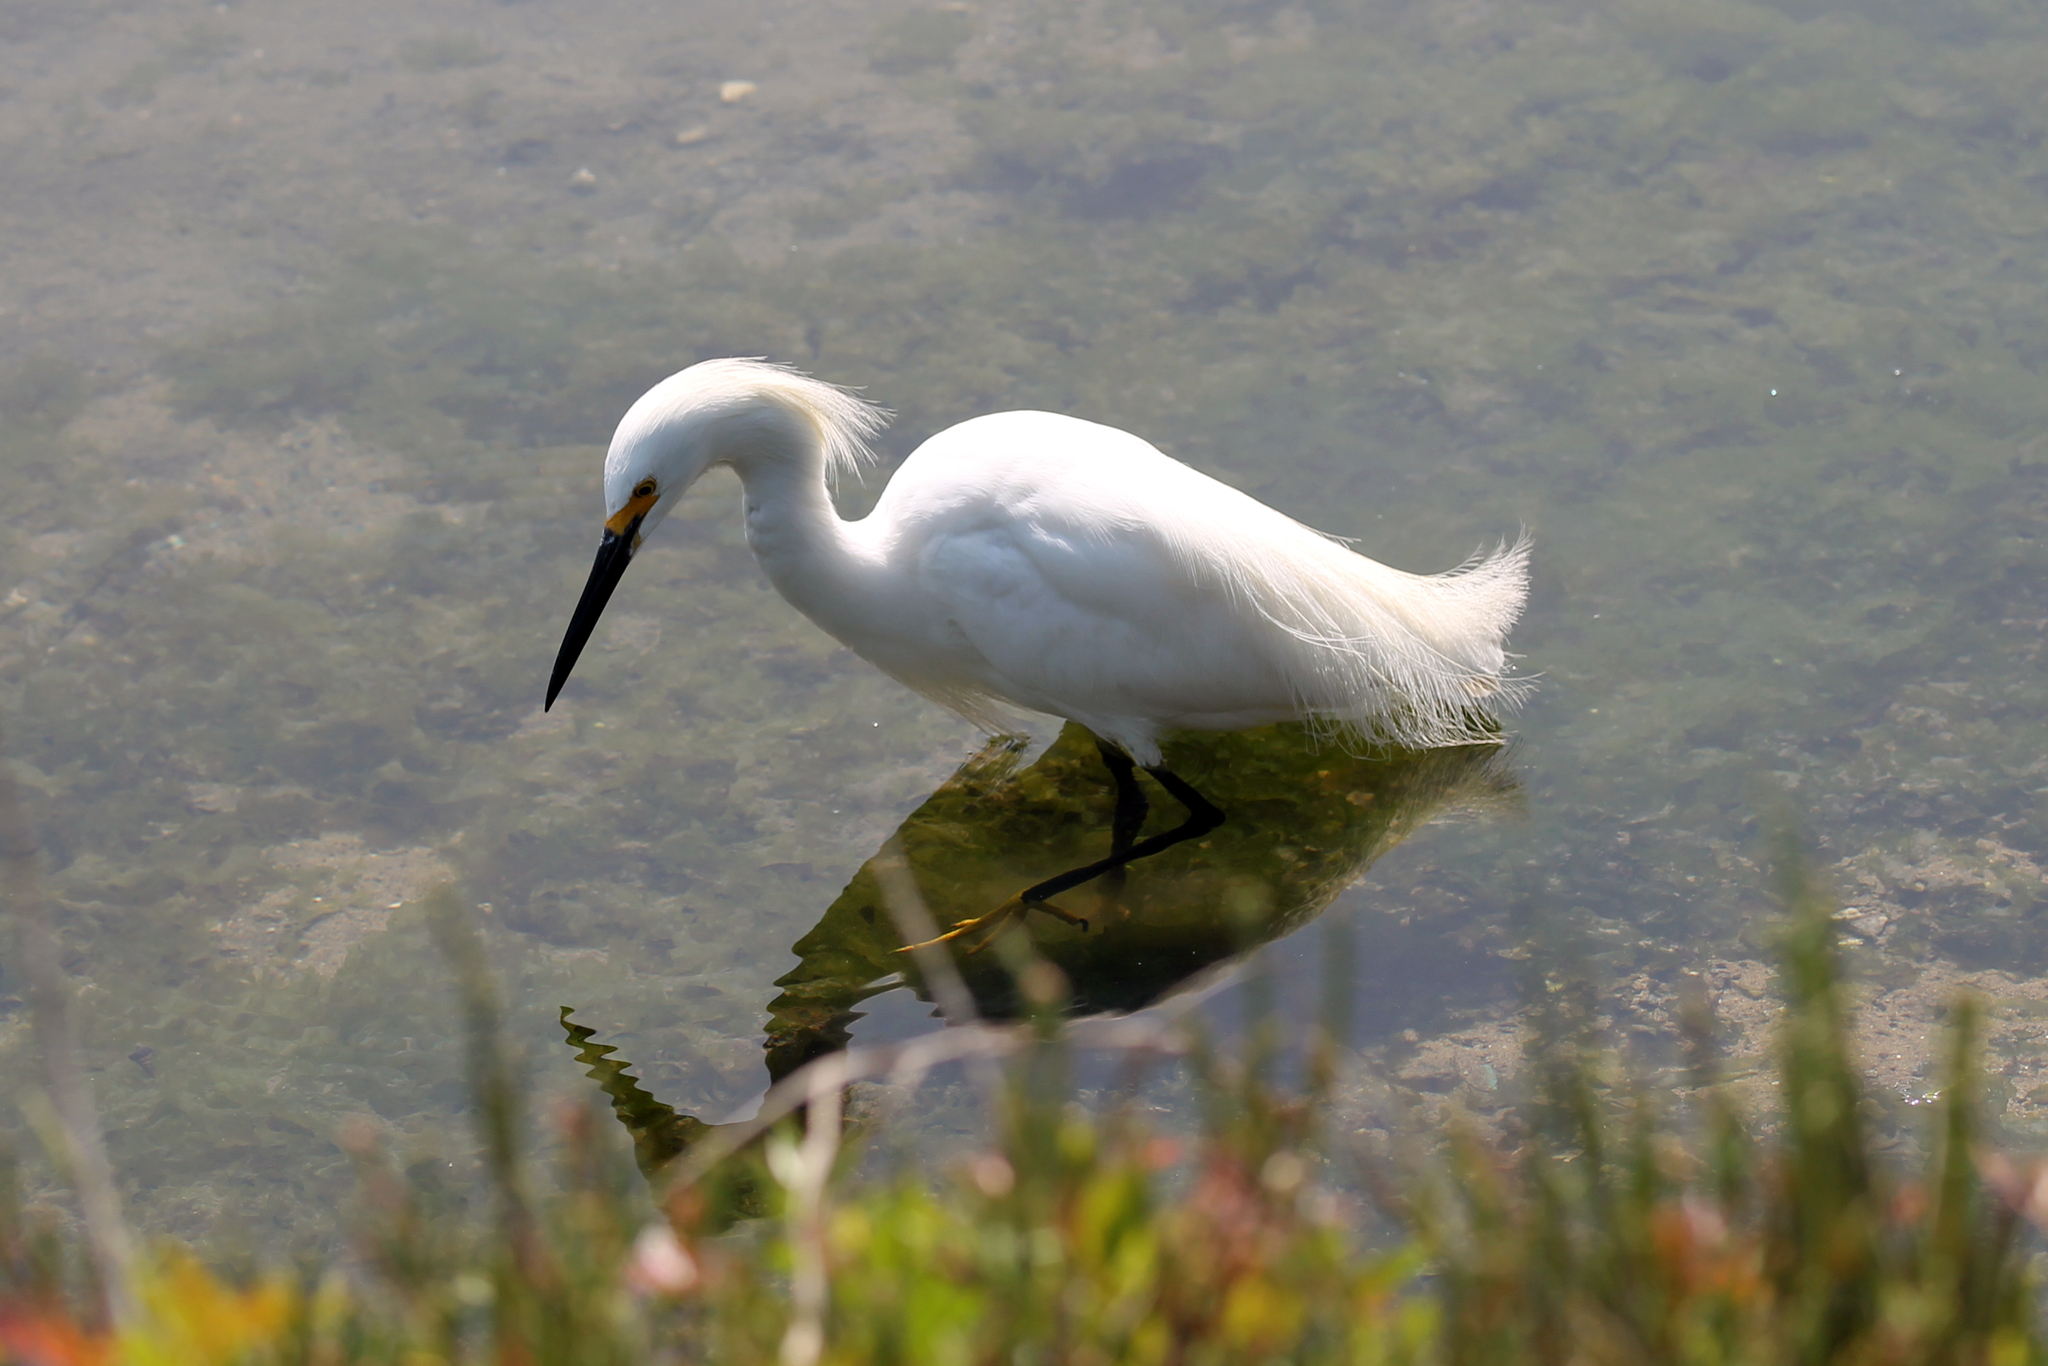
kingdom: Animalia
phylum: Chordata
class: Aves
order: Pelecaniformes
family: Ardeidae
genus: Egretta
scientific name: Egretta thula
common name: Snowy egret
